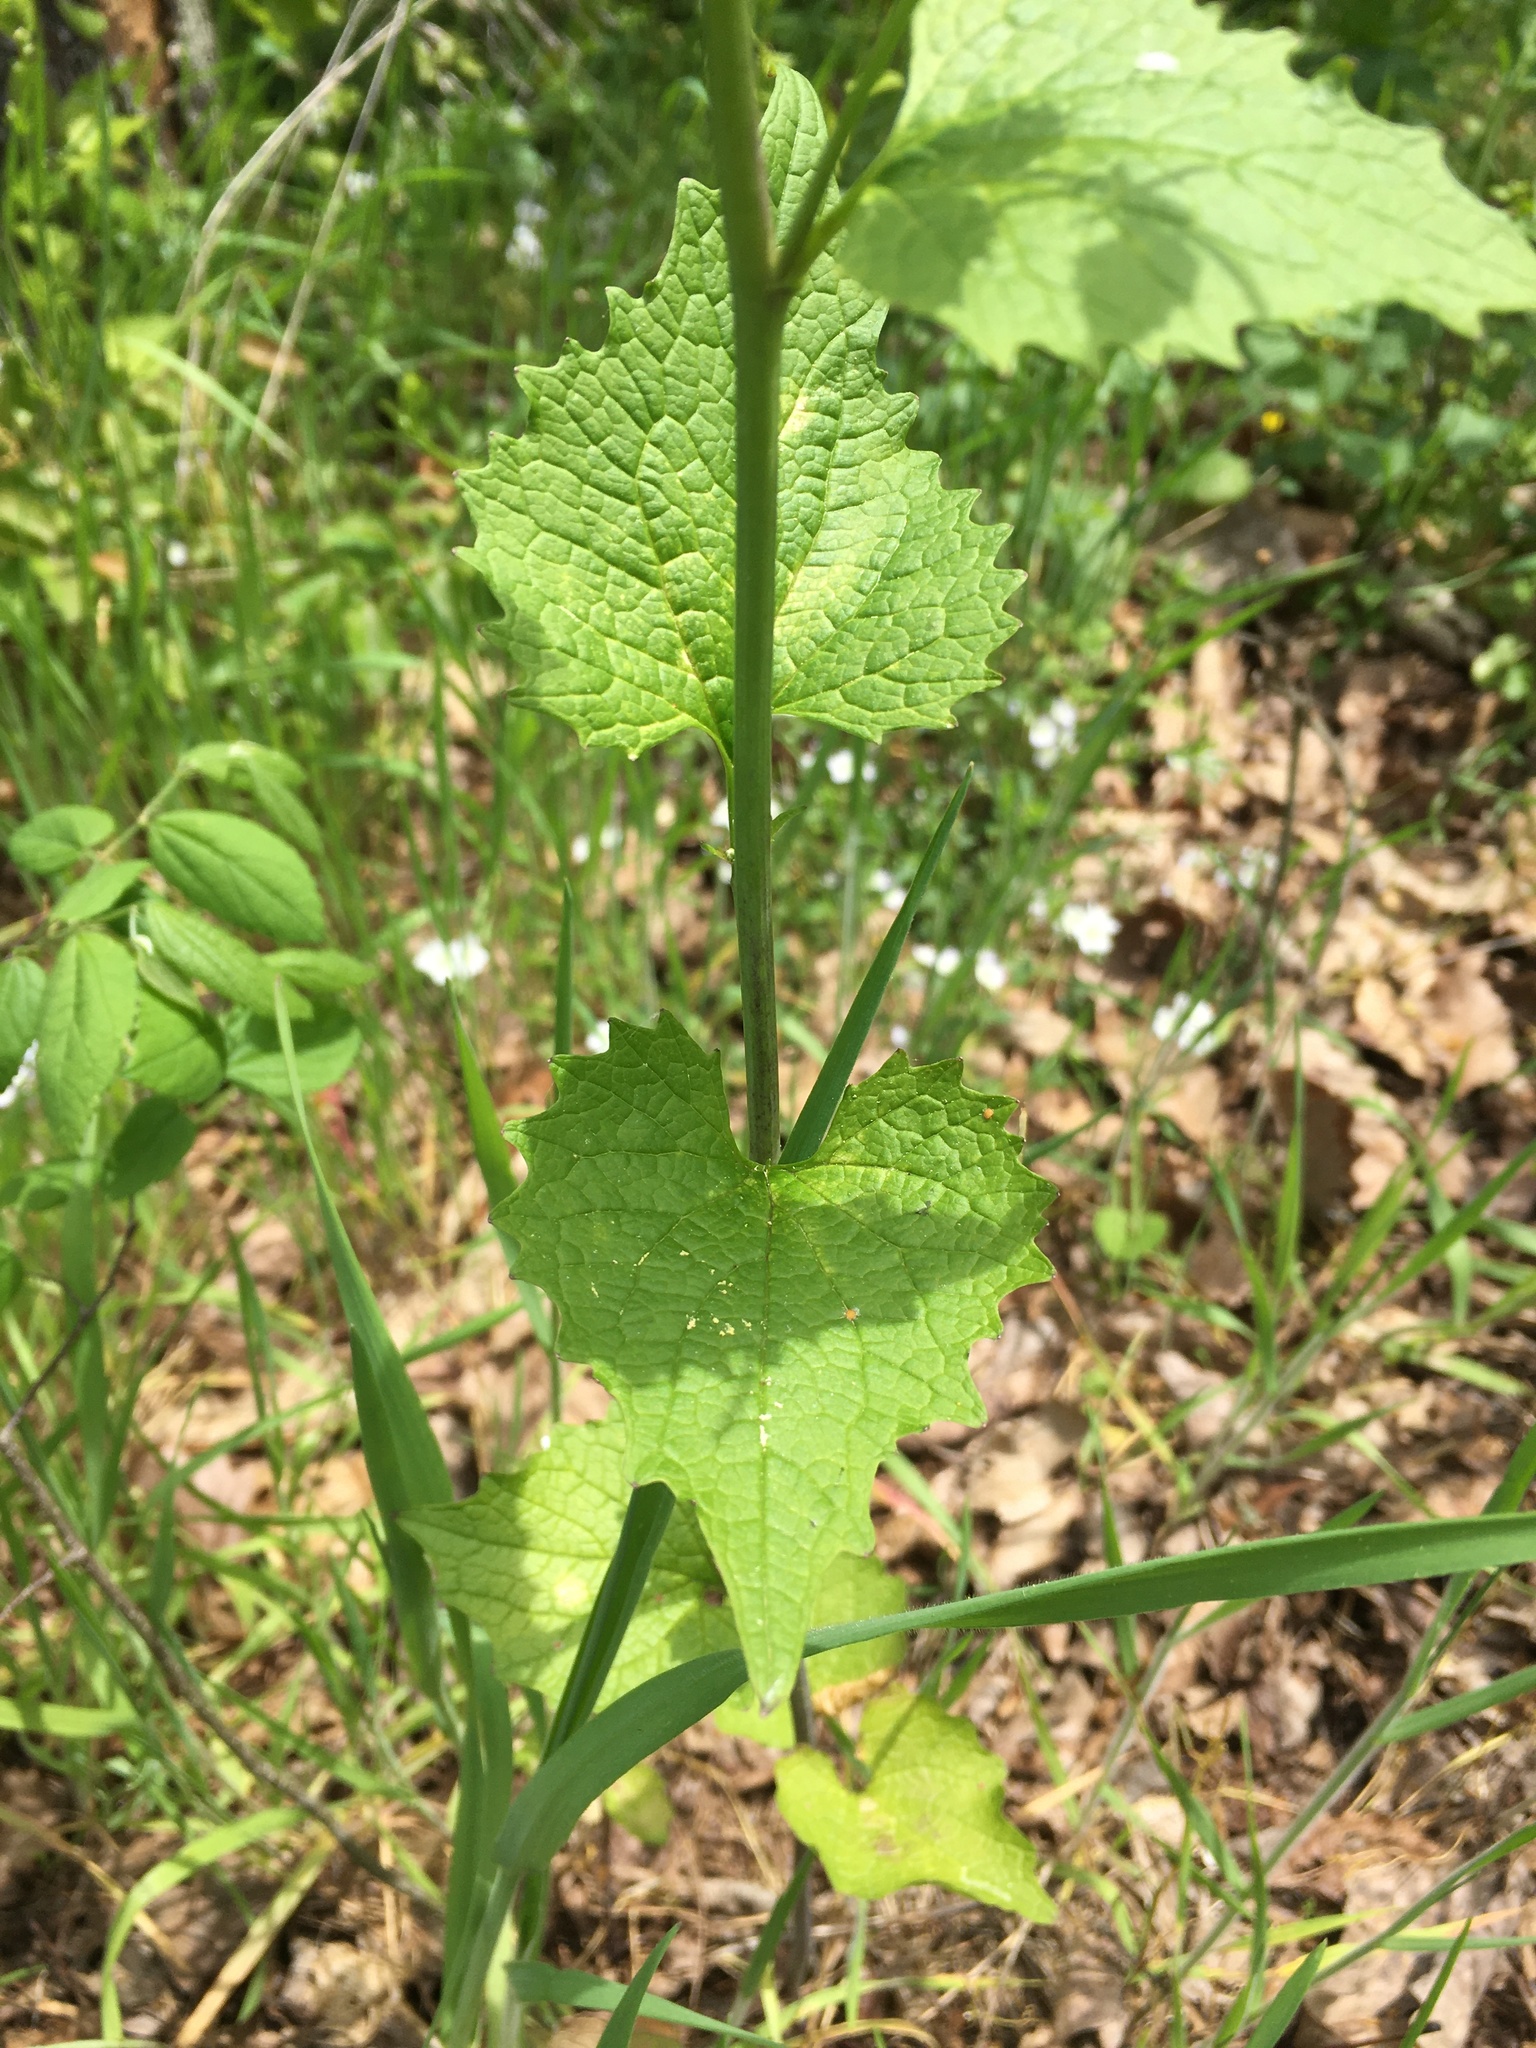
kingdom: Plantae
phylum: Tracheophyta
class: Magnoliopsida
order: Brassicales
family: Brassicaceae
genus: Alliaria
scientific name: Alliaria petiolata
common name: Garlic mustard
